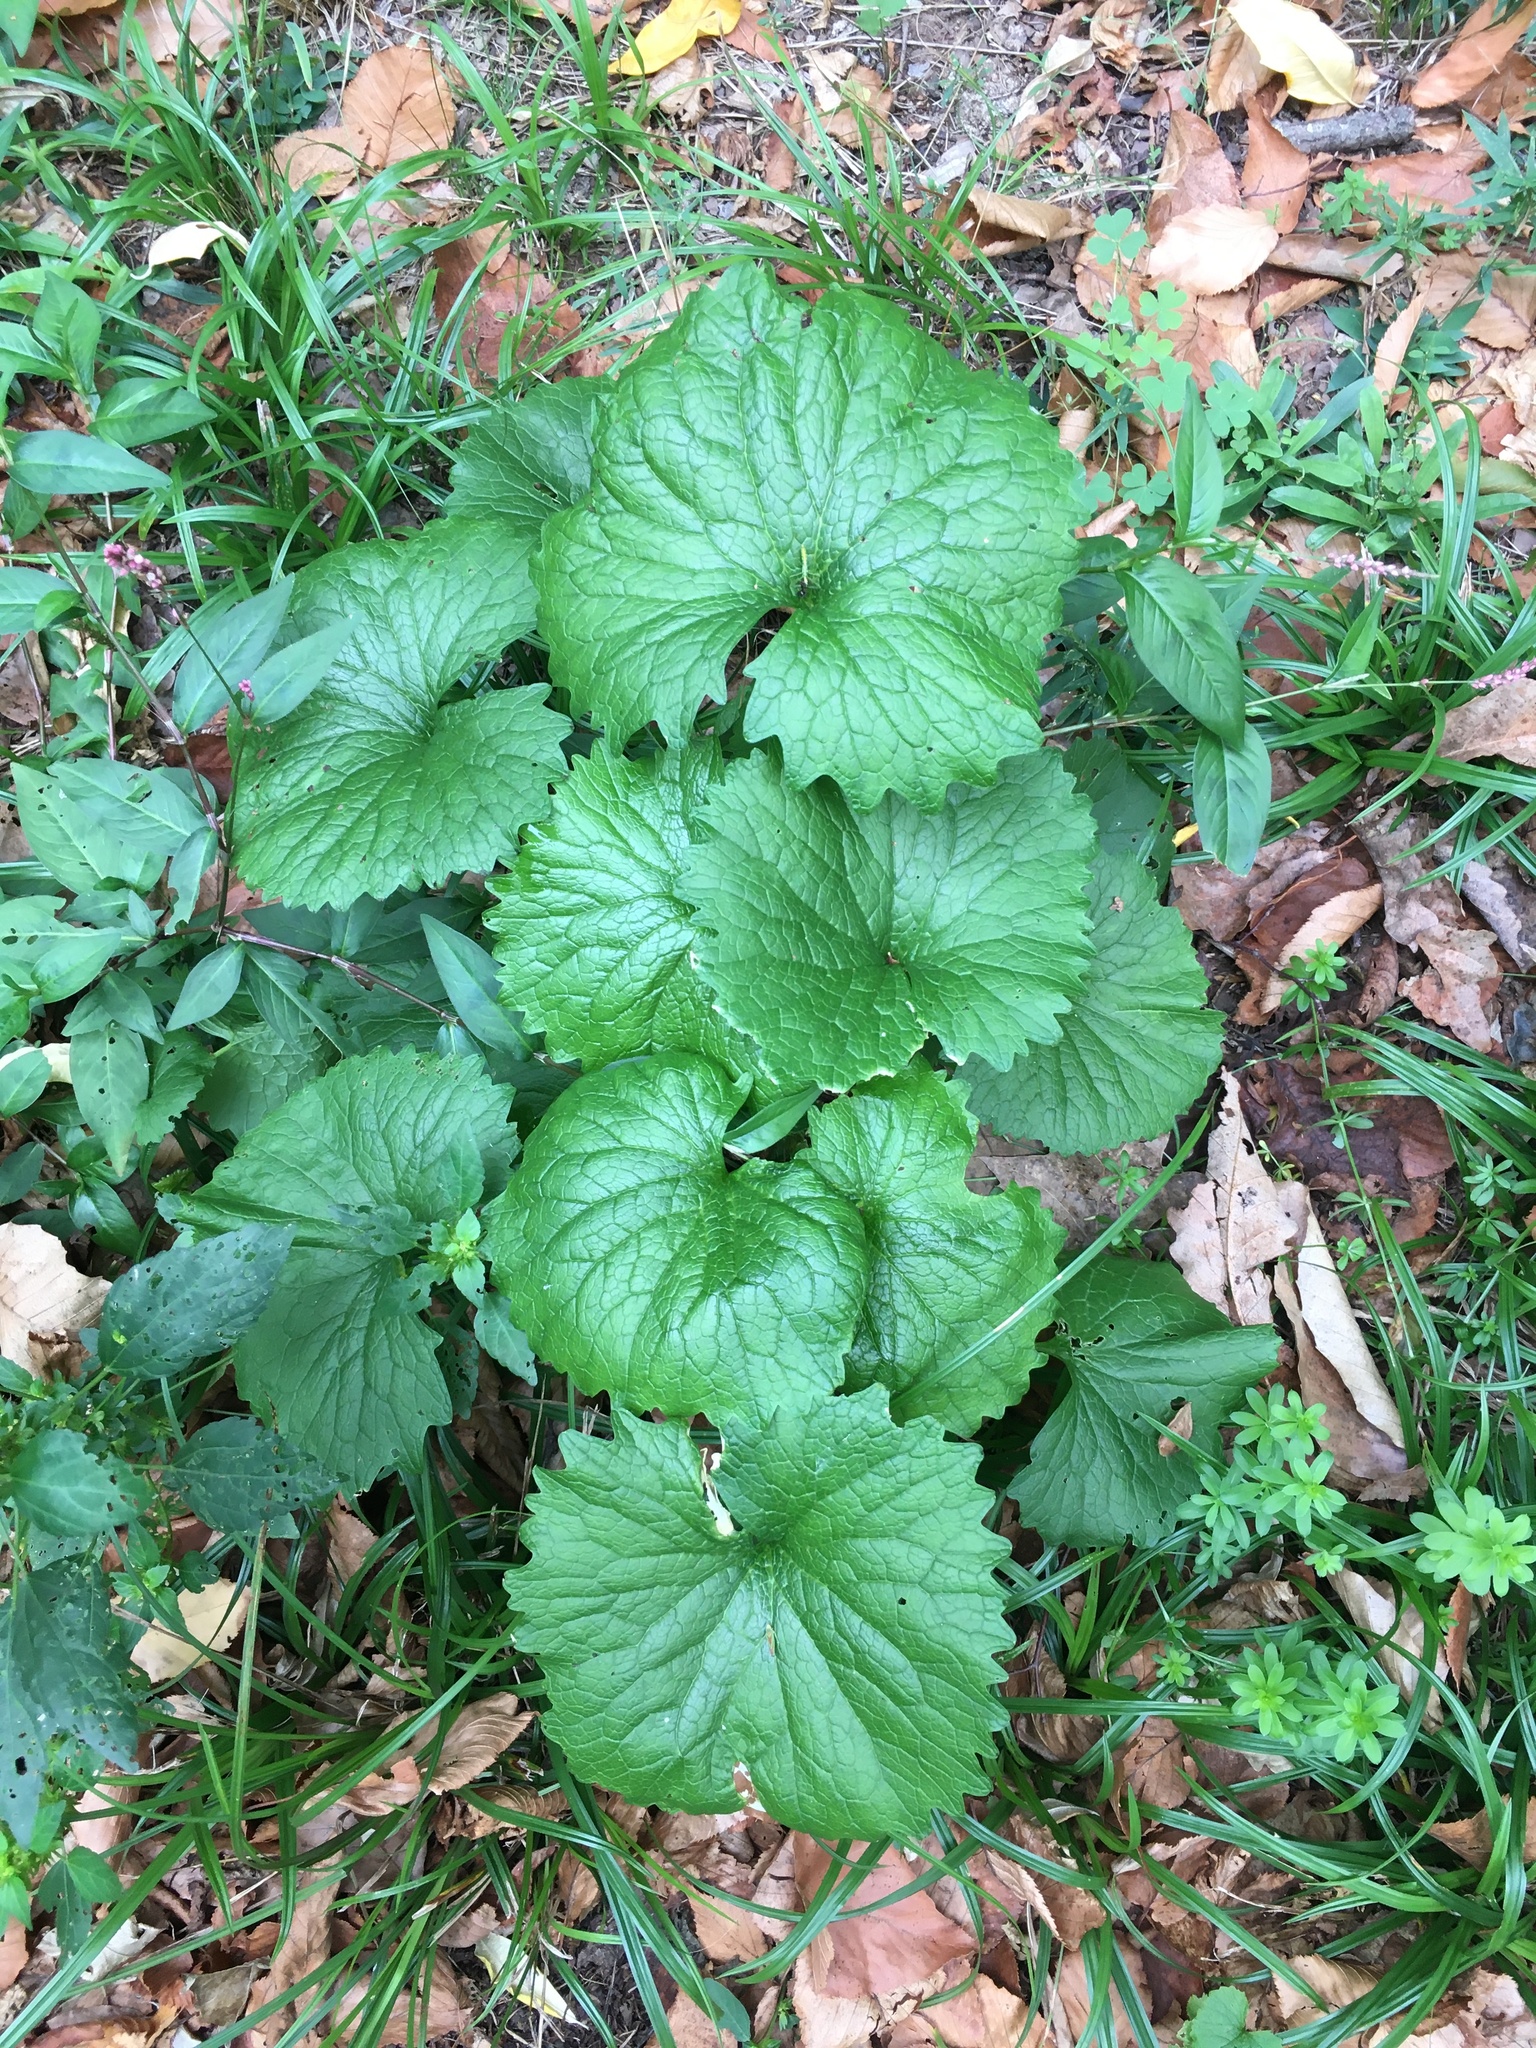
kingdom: Plantae
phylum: Tracheophyta
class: Magnoliopsida
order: Brassicales
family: Brassicaceae
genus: Alliaria
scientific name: Alliaria petiolata
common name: Garlic mustard
